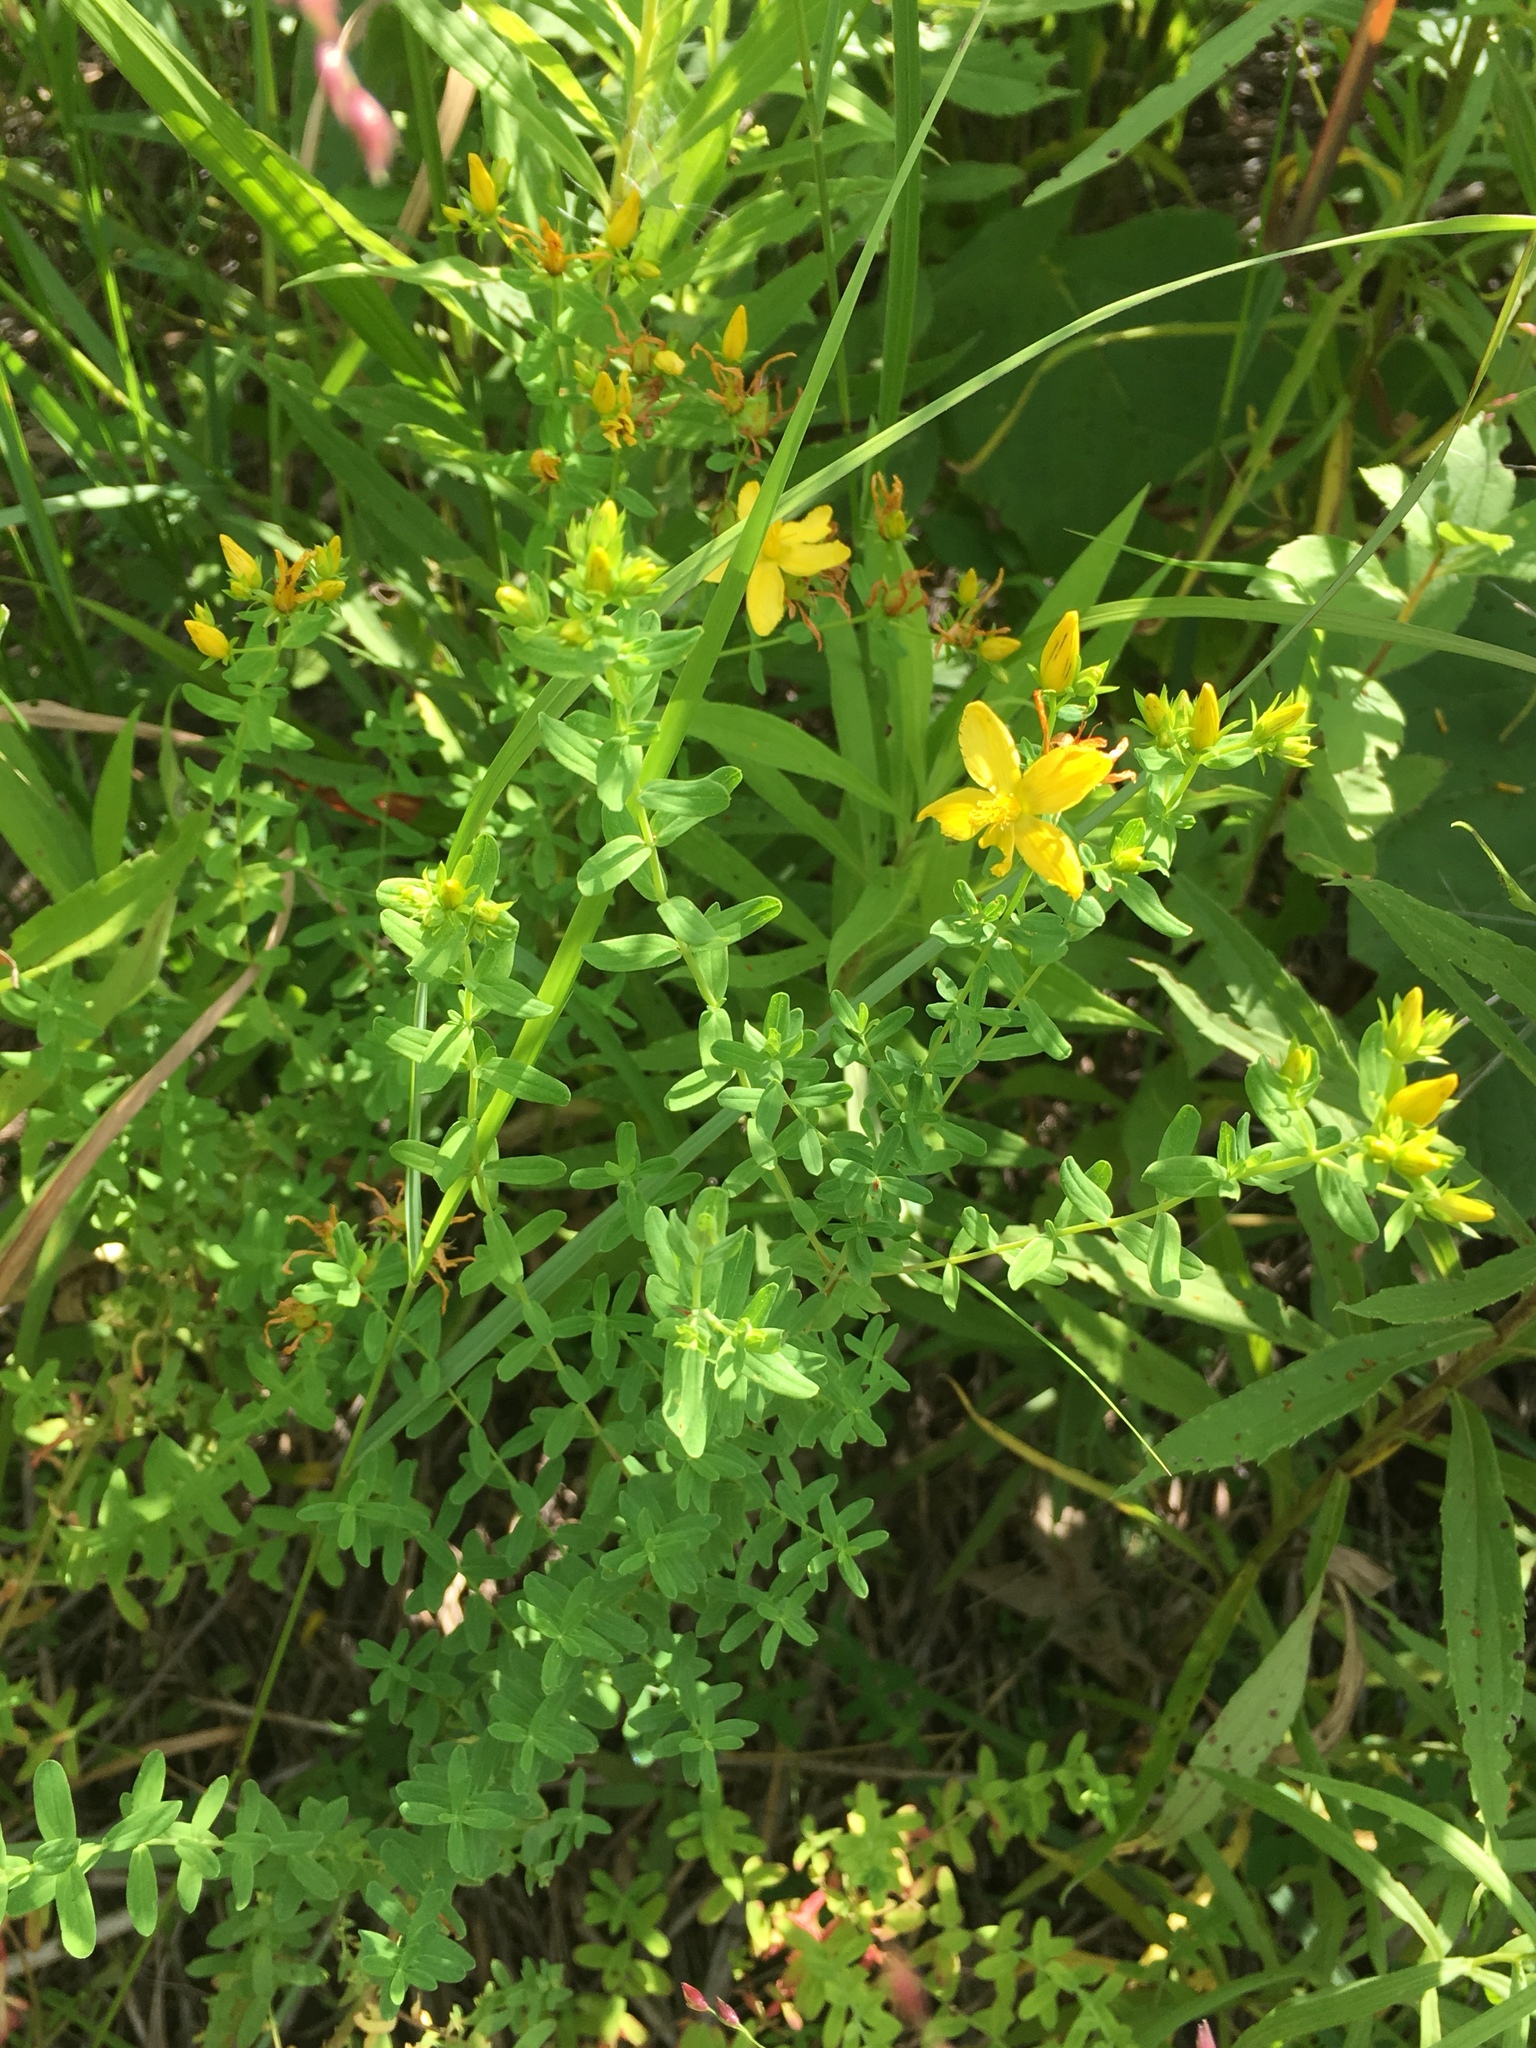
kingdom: Plantae
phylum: Tracheophyta
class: Magnoliopsida
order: Malpighiales
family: Hypericaceae
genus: Hypericum
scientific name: Hypericum perforatum
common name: Common st. johnswort
